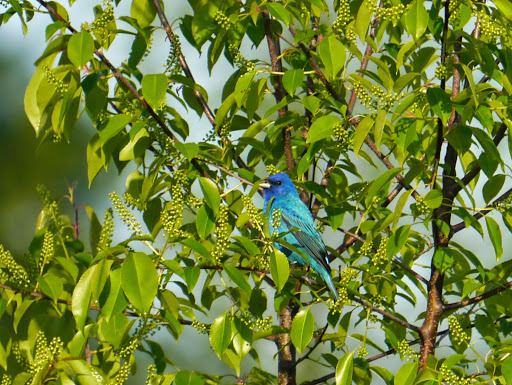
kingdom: Animalia
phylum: Chordata
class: Aves
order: Passeriformes
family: Cardinalidae
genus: Passerina
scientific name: Passerina cyanea
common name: Indigo bunting
